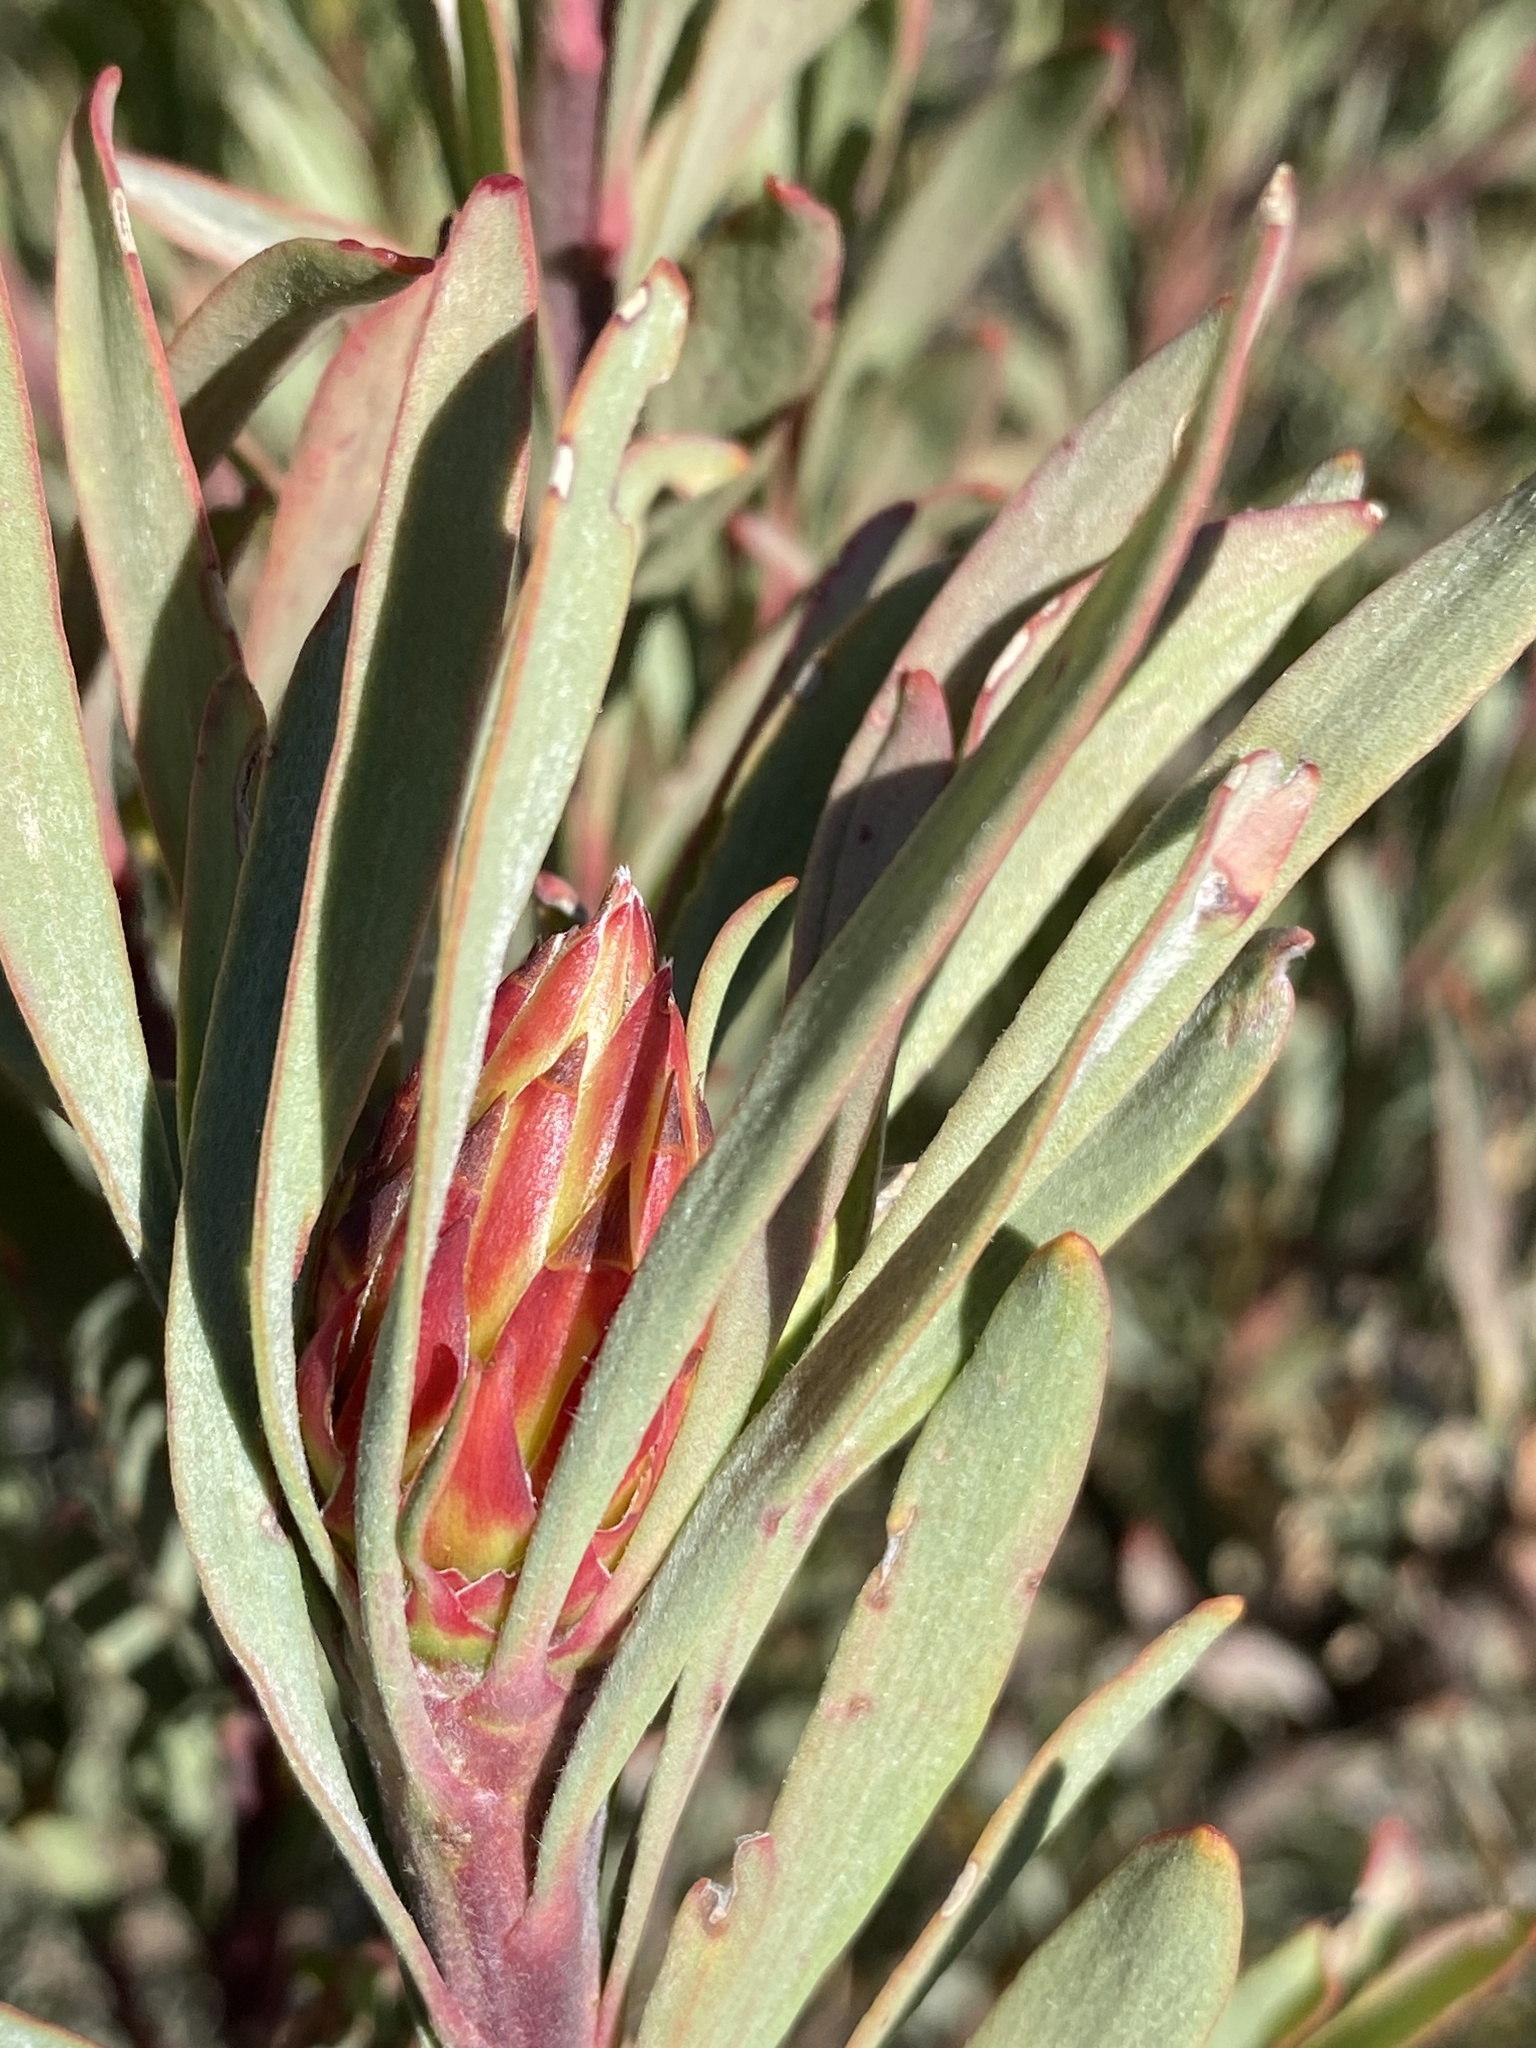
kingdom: Plantae
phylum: Tracheophyta
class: Magnoliopsida
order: Proteales
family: Proteaceae
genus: Leucadendron
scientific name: Leucadendron rubrum
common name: Spinning top
